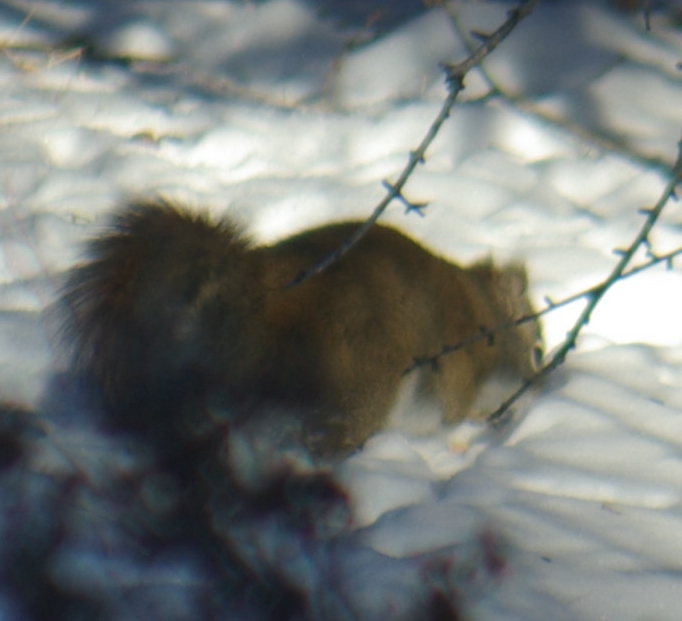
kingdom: Animalia
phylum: Chordata
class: Mammalia
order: Rodentia
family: Sciuridae
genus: Tamiasciurus
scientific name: Tamiasciurus hudsonicus
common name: Red squirrel
